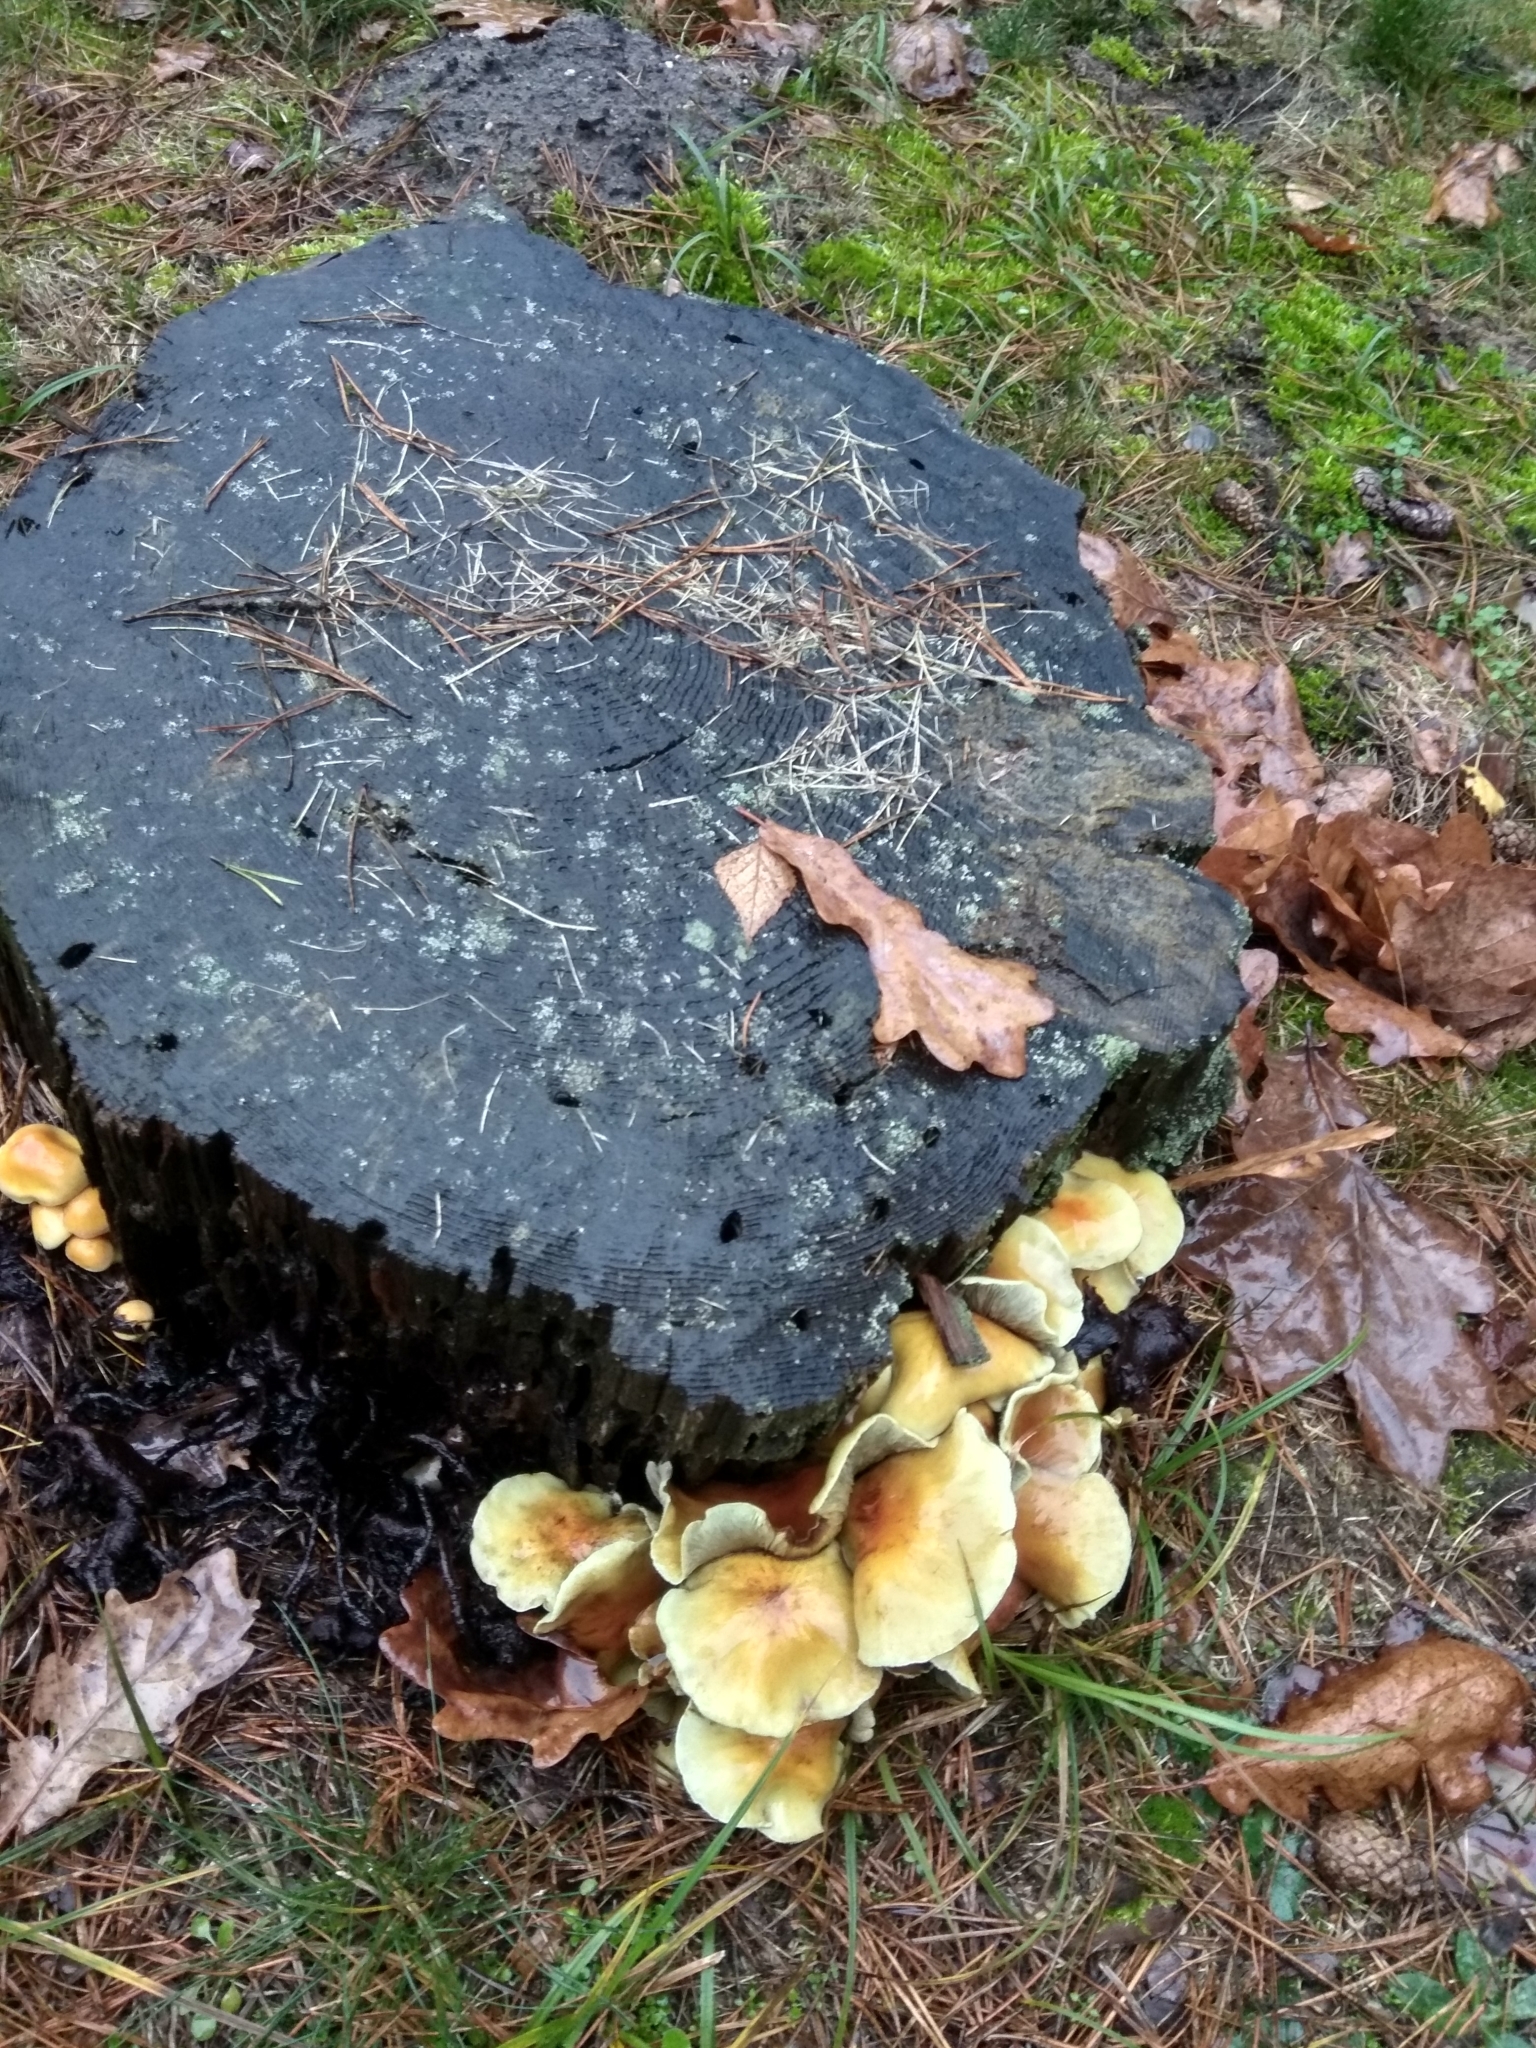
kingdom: Fungi
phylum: Basidiomycota
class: Agaricomycetes
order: Agaricales
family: Strophariaceae
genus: Hypholoma
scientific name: Hypholoma fasciculare
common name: Sulphur tuft
